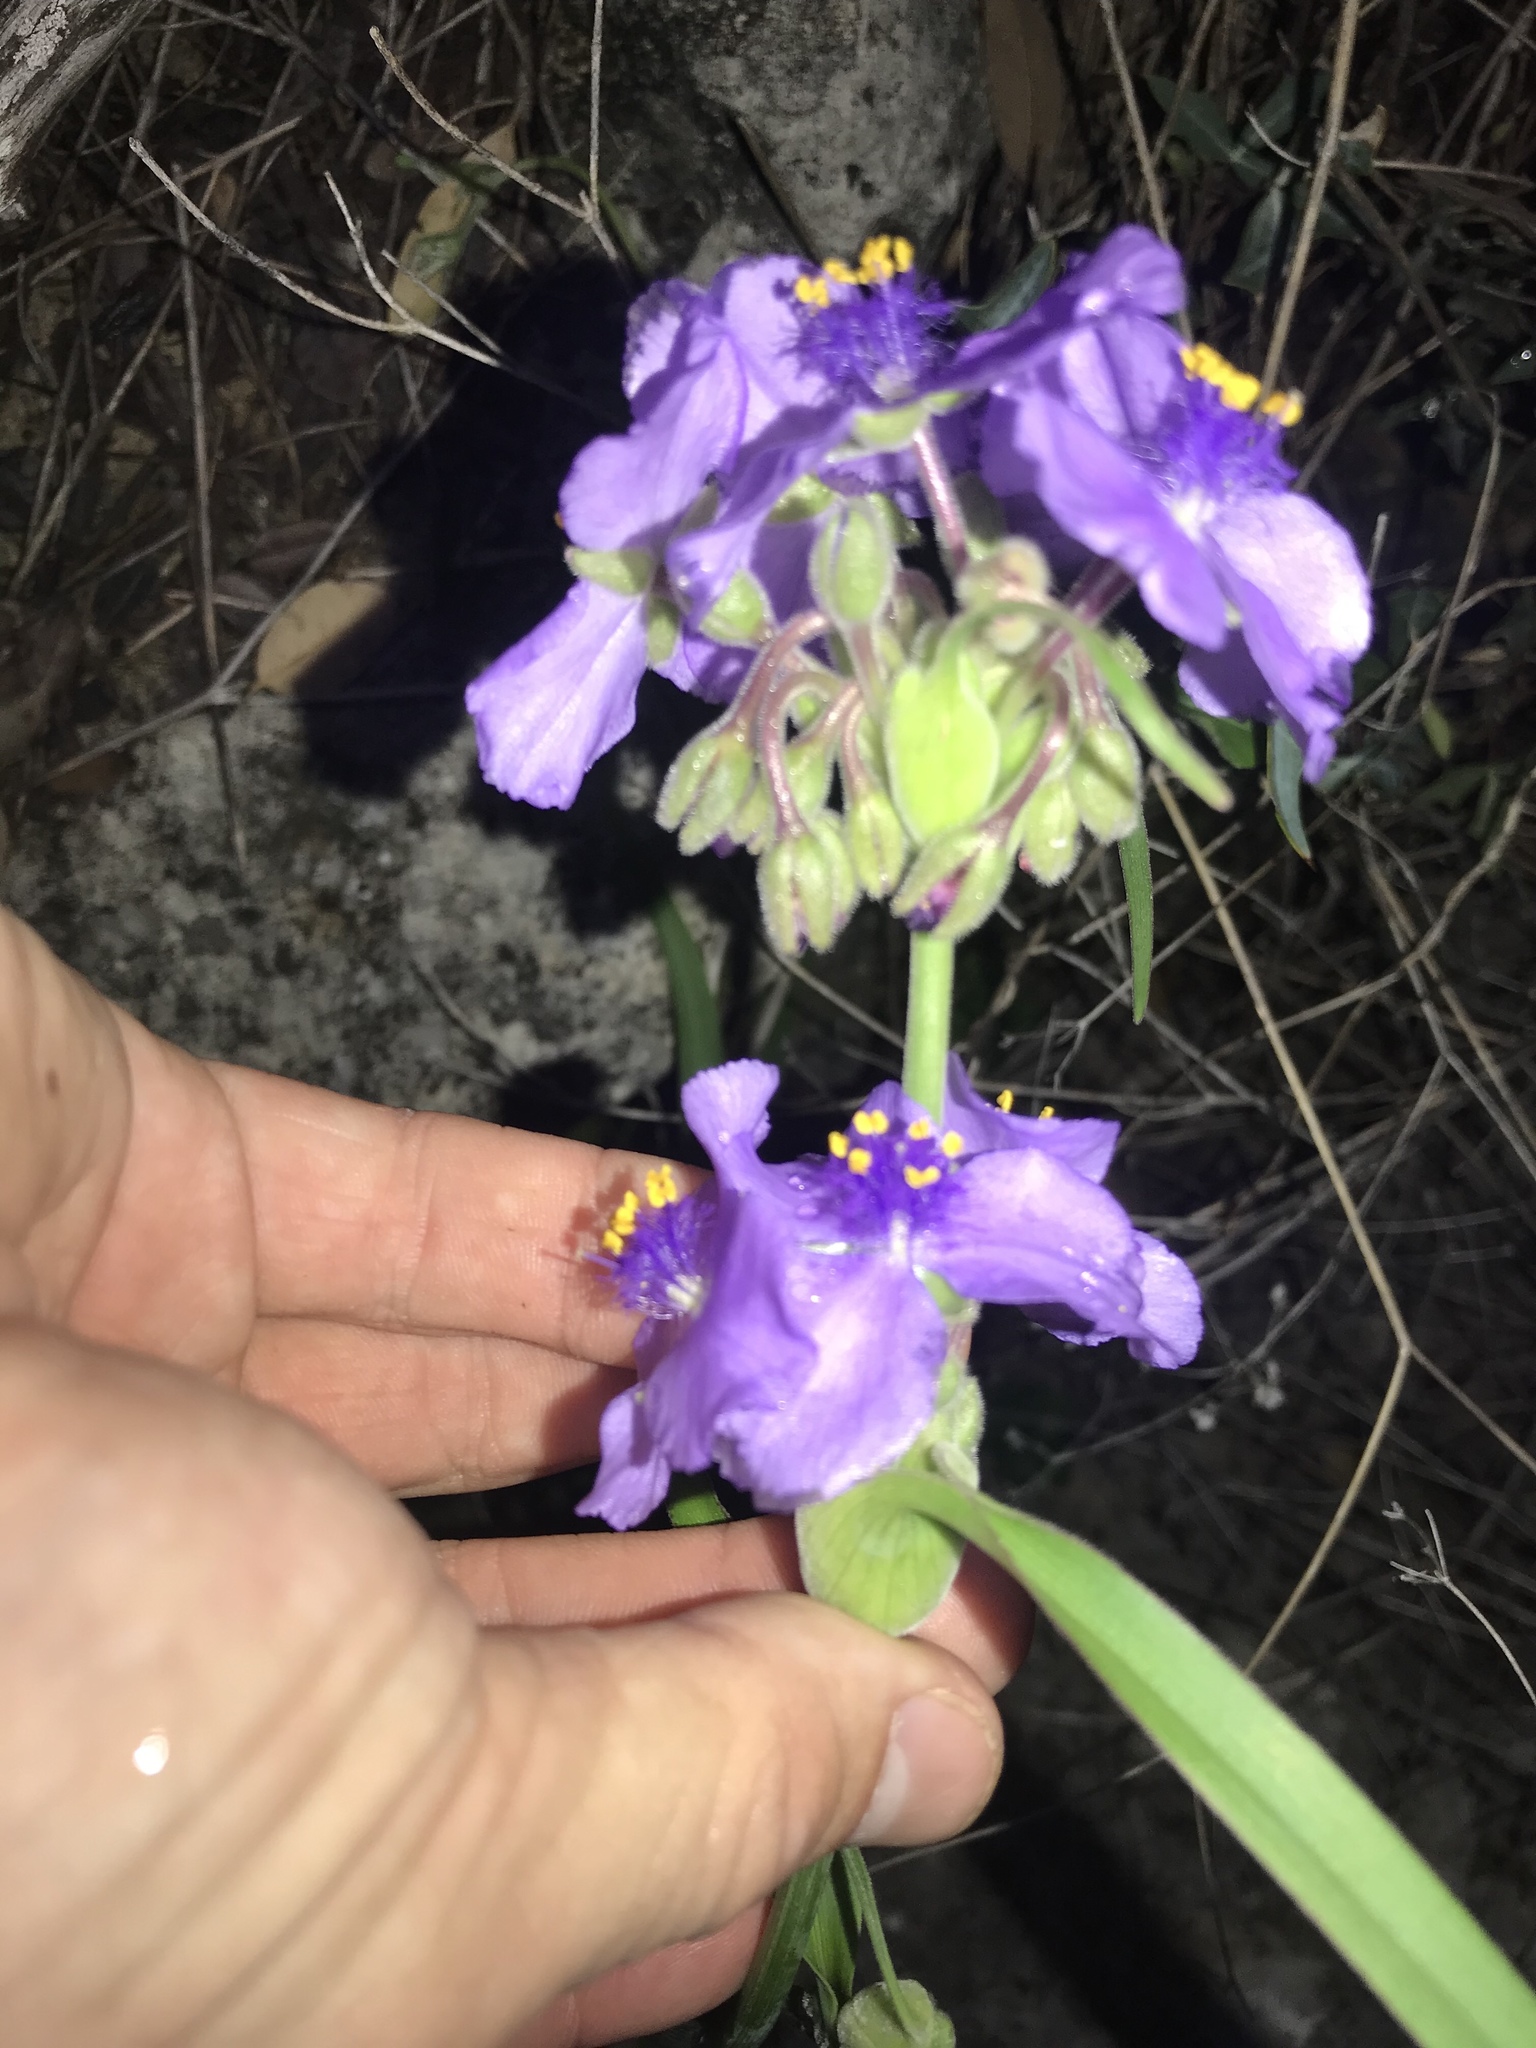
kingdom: Plantae
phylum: Tracheophyta
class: Liliopsida
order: Commelinales
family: Commelinaceae
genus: Tradescantia
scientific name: Tradescantia gigantea
